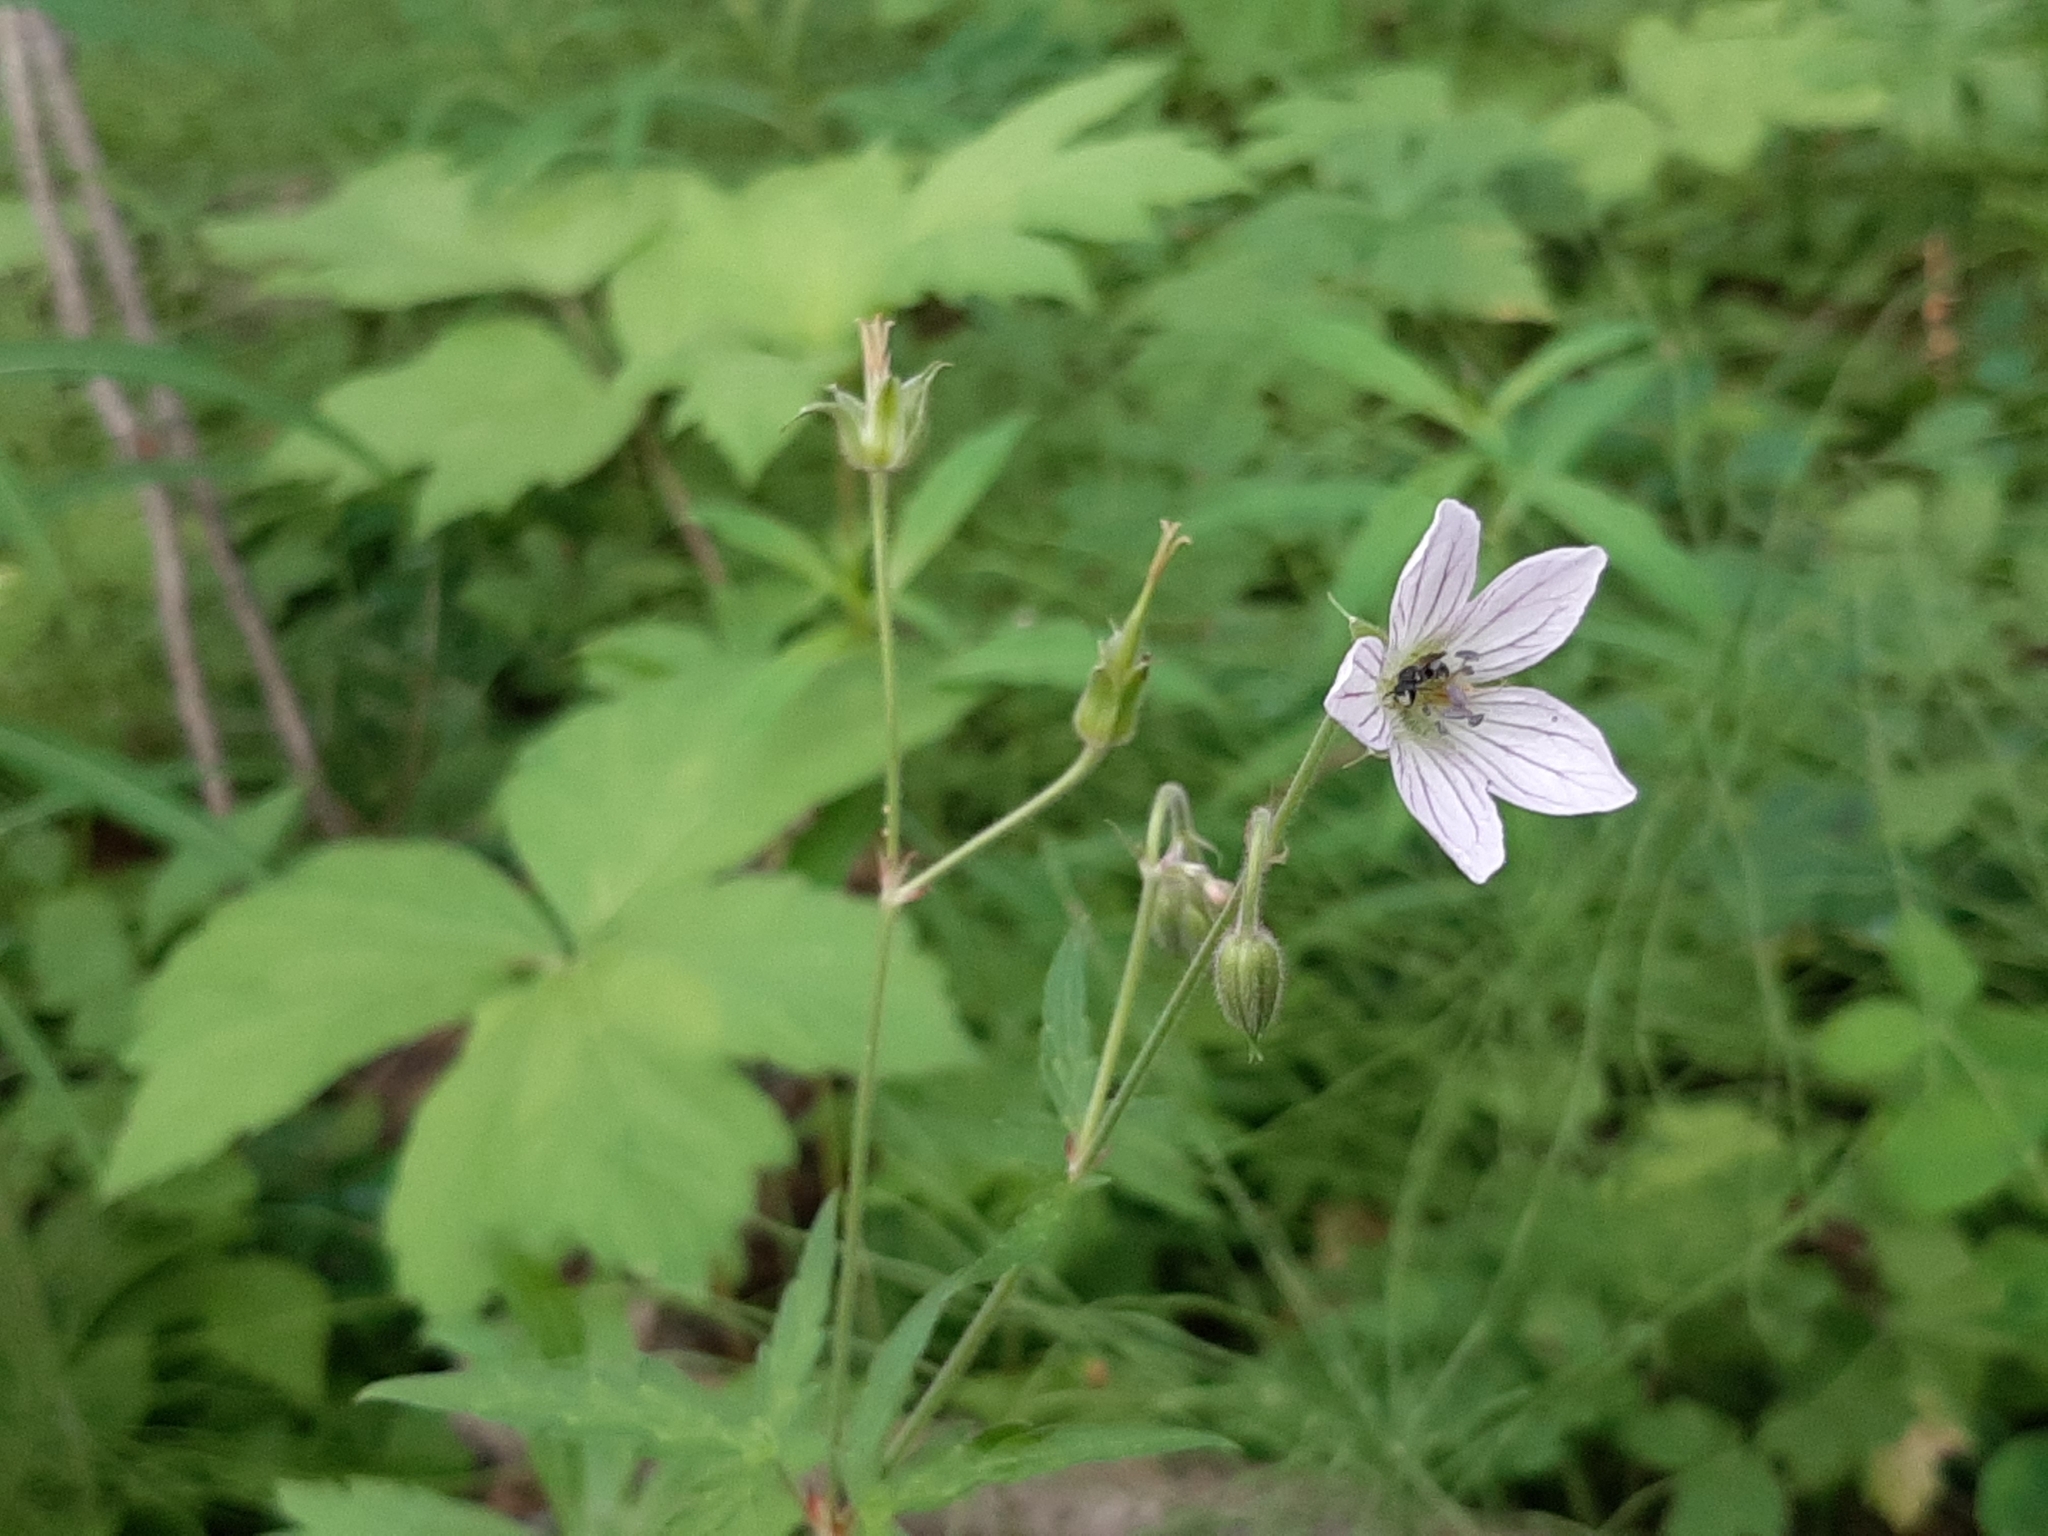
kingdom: Plantae
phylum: Tracheophyta
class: Magnoliopsida
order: Geraniales
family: Geraniaceae
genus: Geranium
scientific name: Geranium richardsonii
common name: Richardson's crane's-bill
